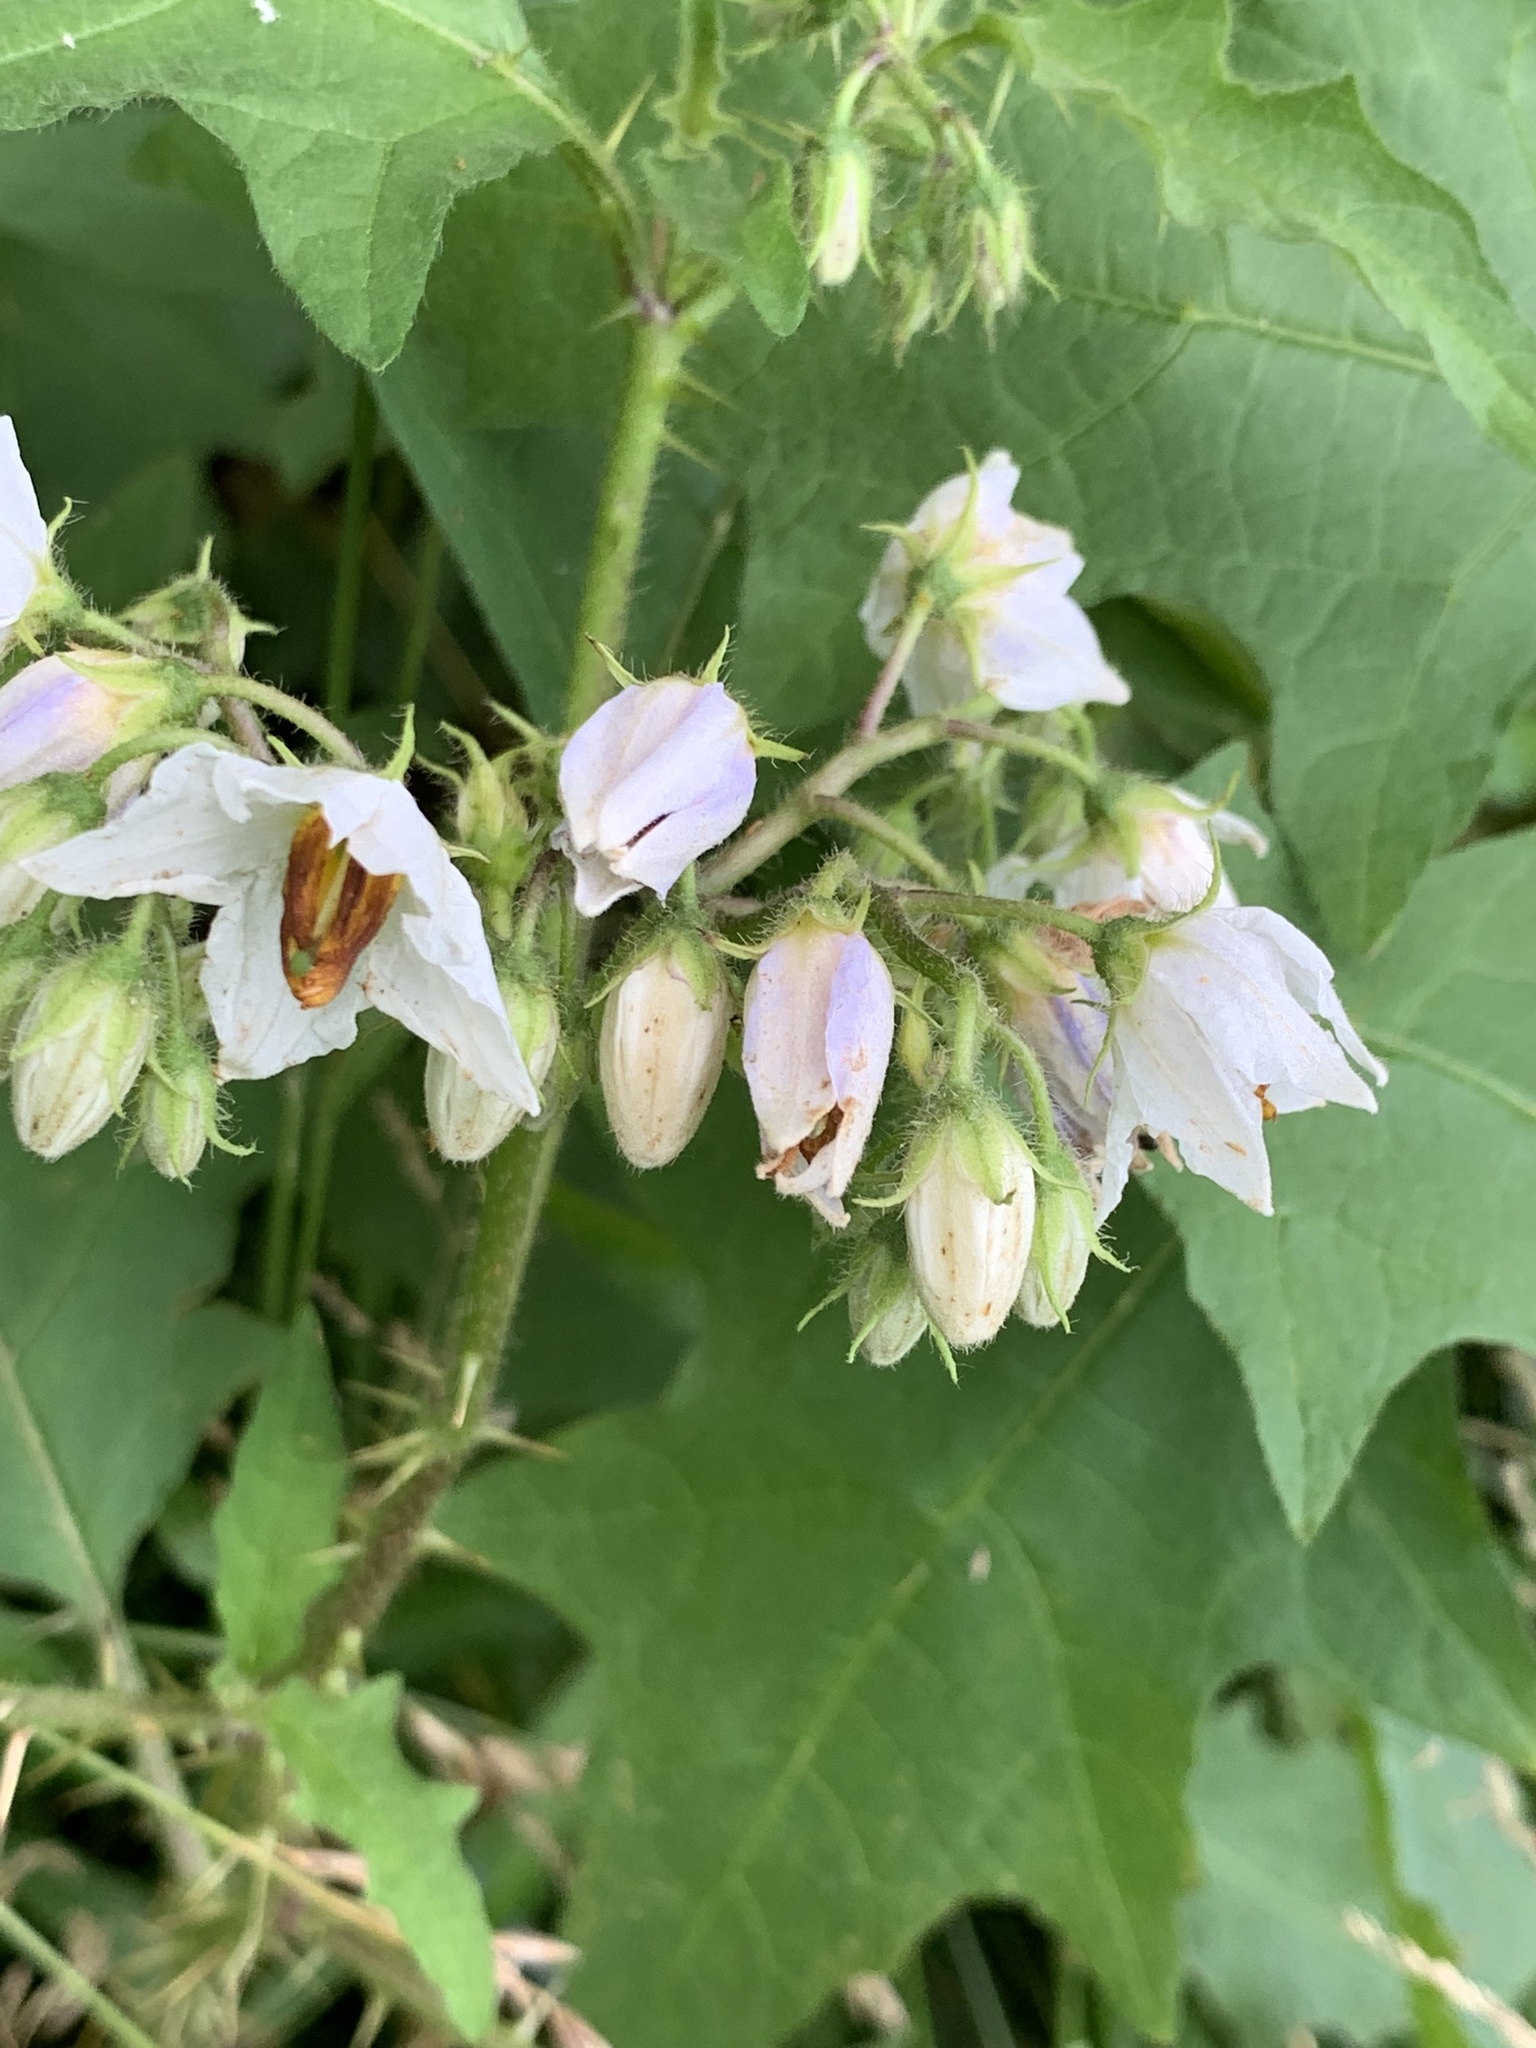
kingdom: Plantae
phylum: Tracheophyta
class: Magnoliopsida
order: Solanales
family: Solanaceae
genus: Solanum
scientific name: Solanum carolinense
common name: Horse-nettle
